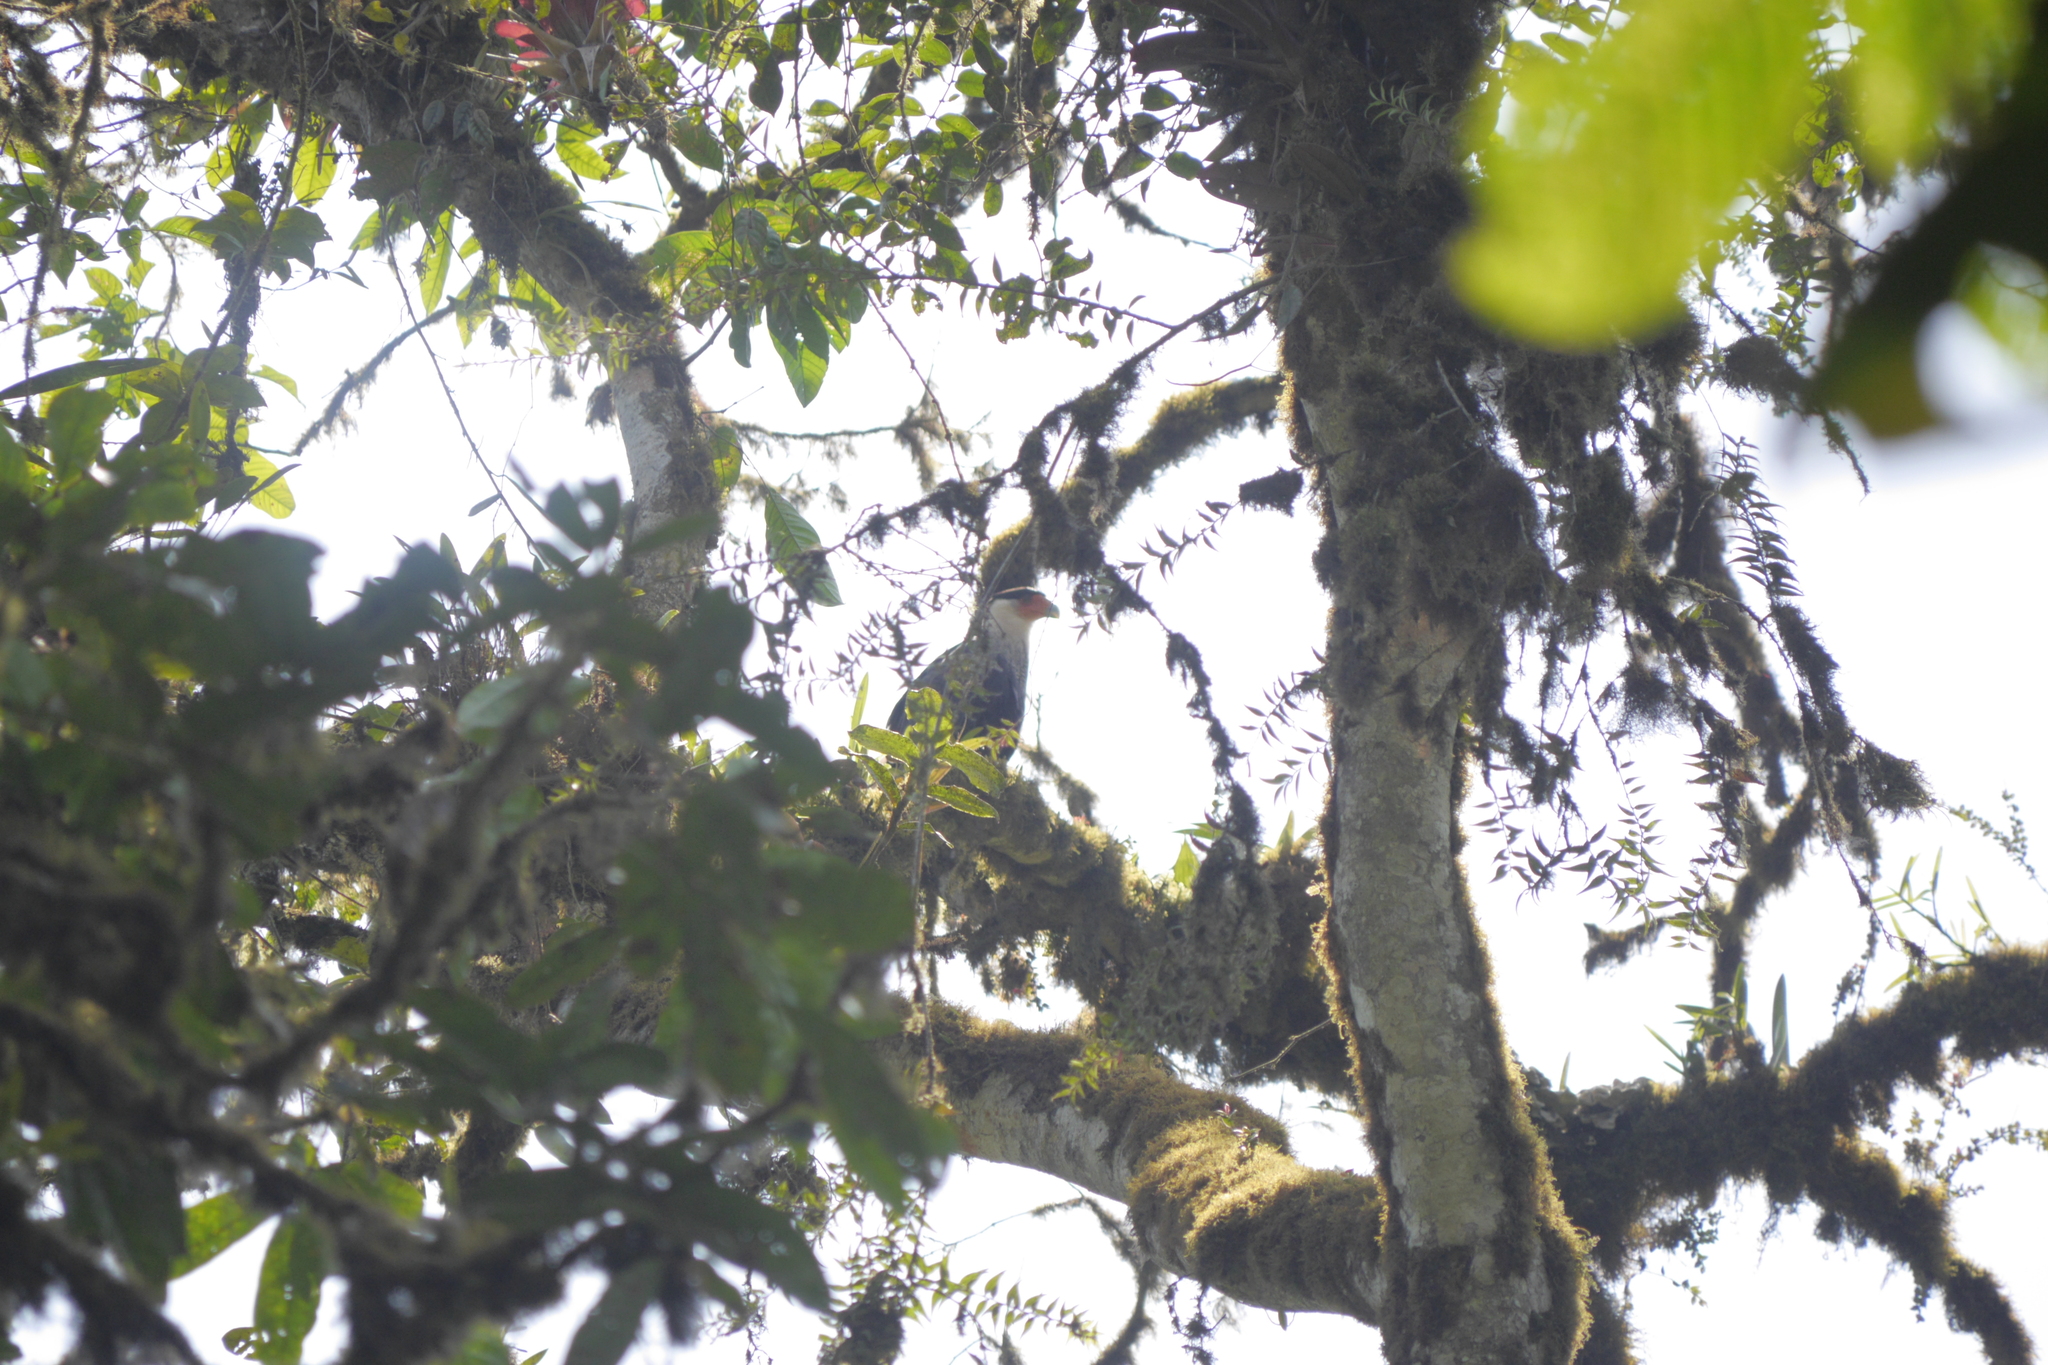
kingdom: Animalia
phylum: Chordata
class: Aves
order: Falconiformes
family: Falconidae
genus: Caracara
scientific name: Caracara plancus
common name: Southern caracara
